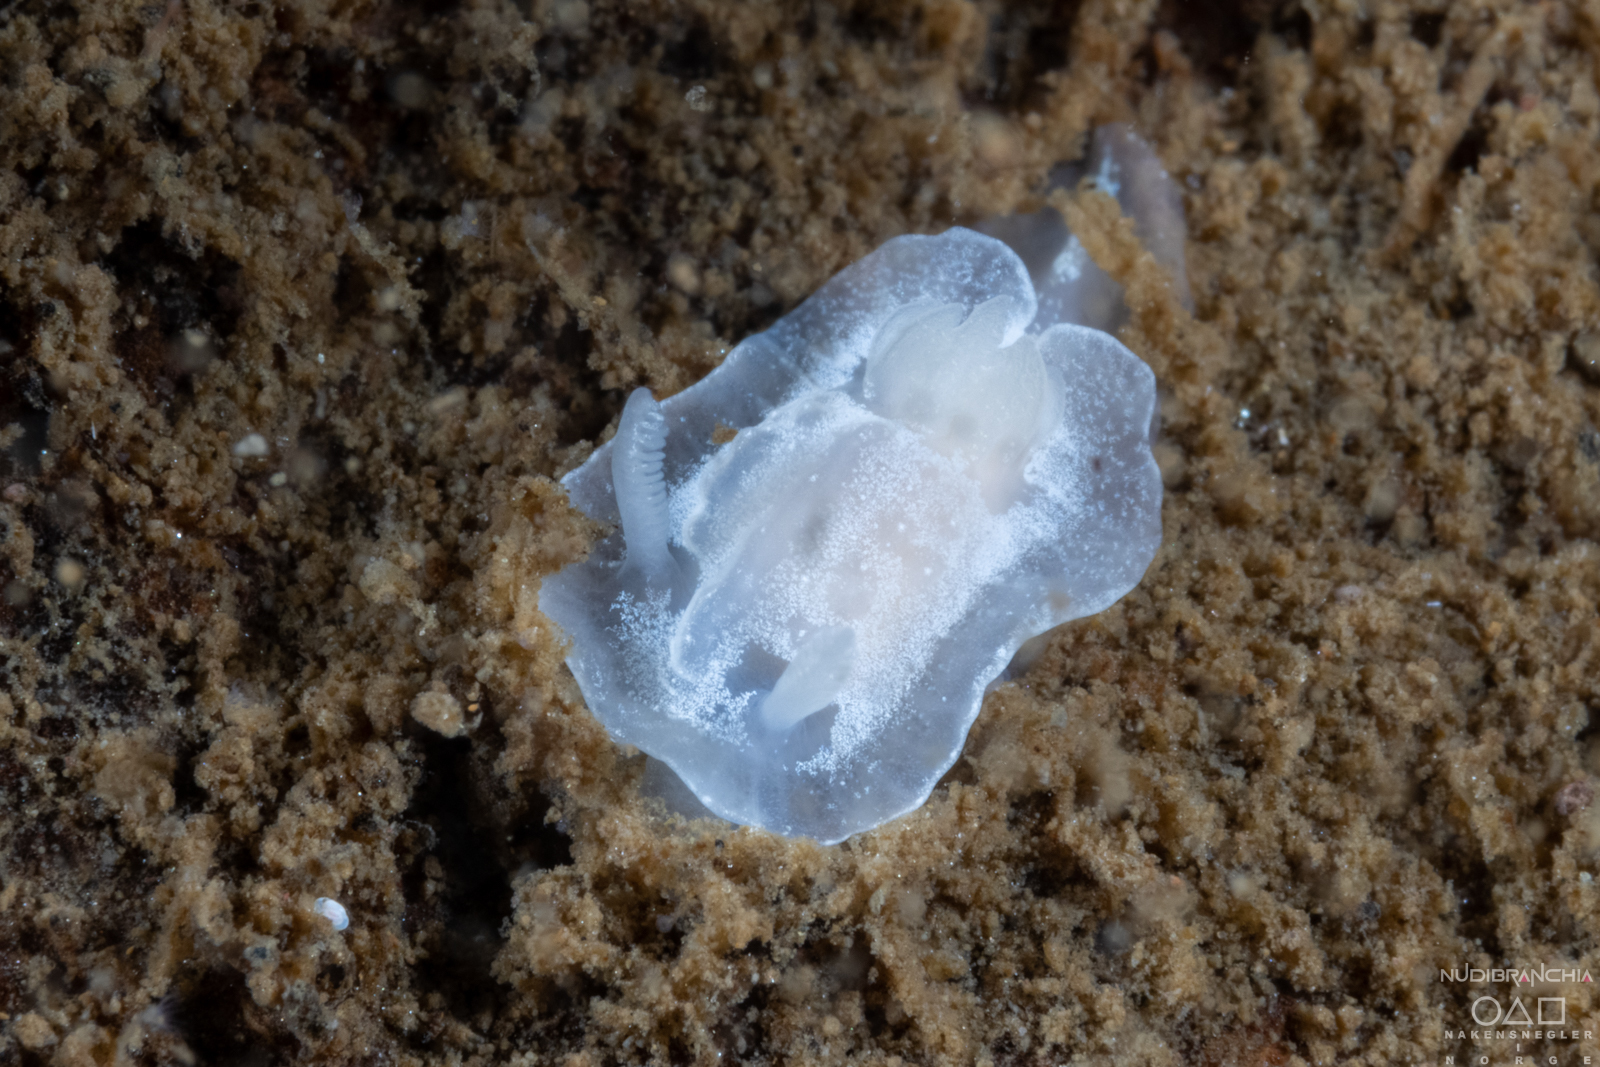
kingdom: Animalia
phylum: Mollusca
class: Gastropoda
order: Nudibranchia
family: Goniodorididae
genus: Okenia
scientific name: Okenia
